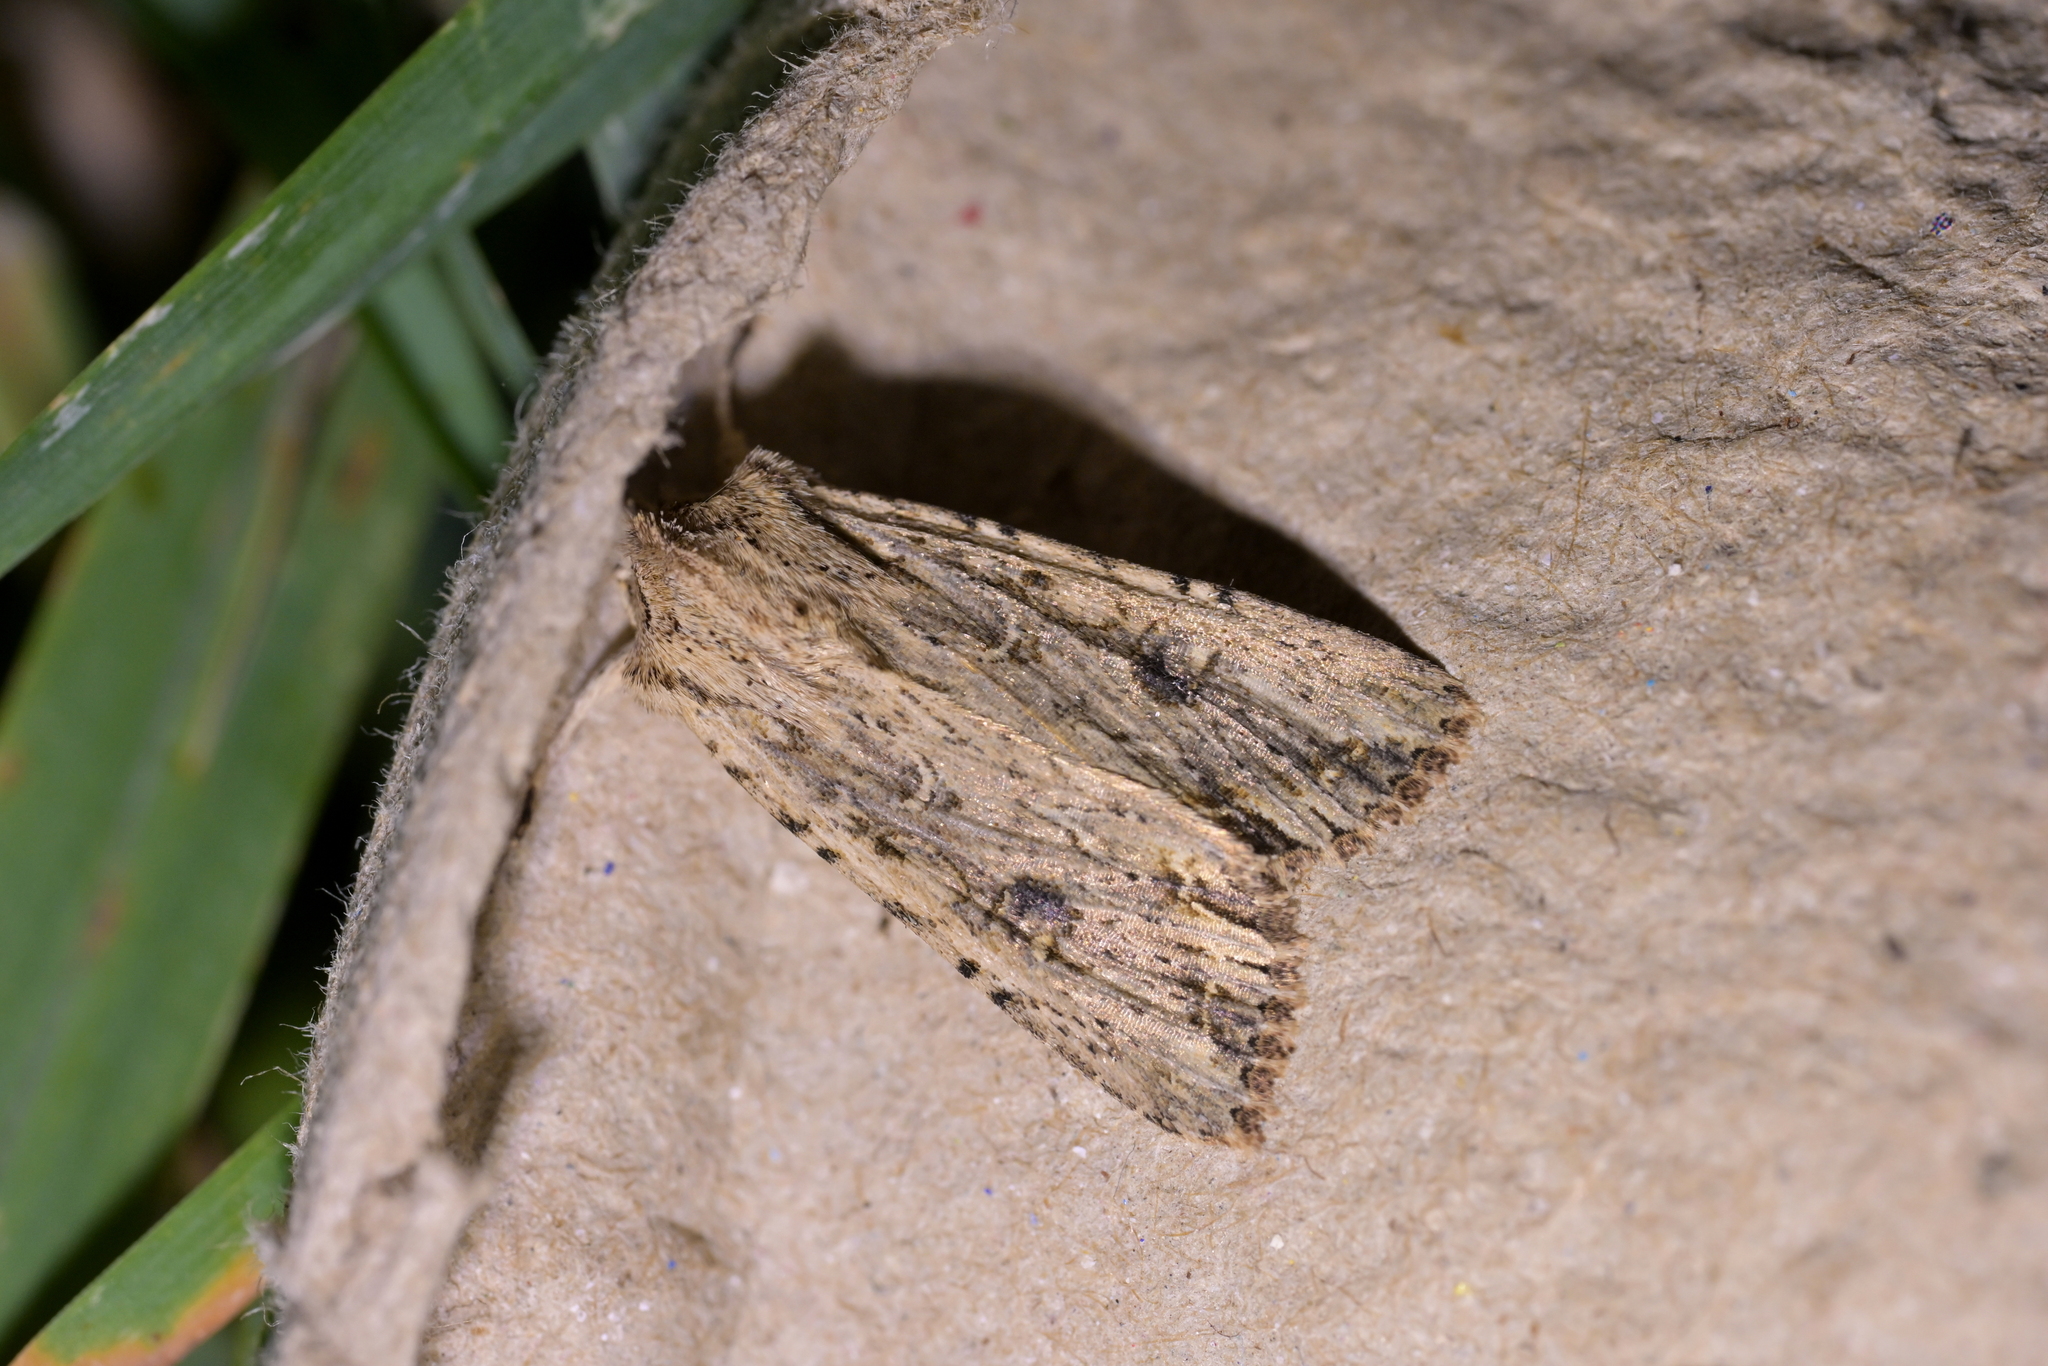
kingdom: Animalia
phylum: Arthropoda
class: Insecta
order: Lepidoptera
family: Noctuidae
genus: Ichneutica
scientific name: Ichneutica lignana
